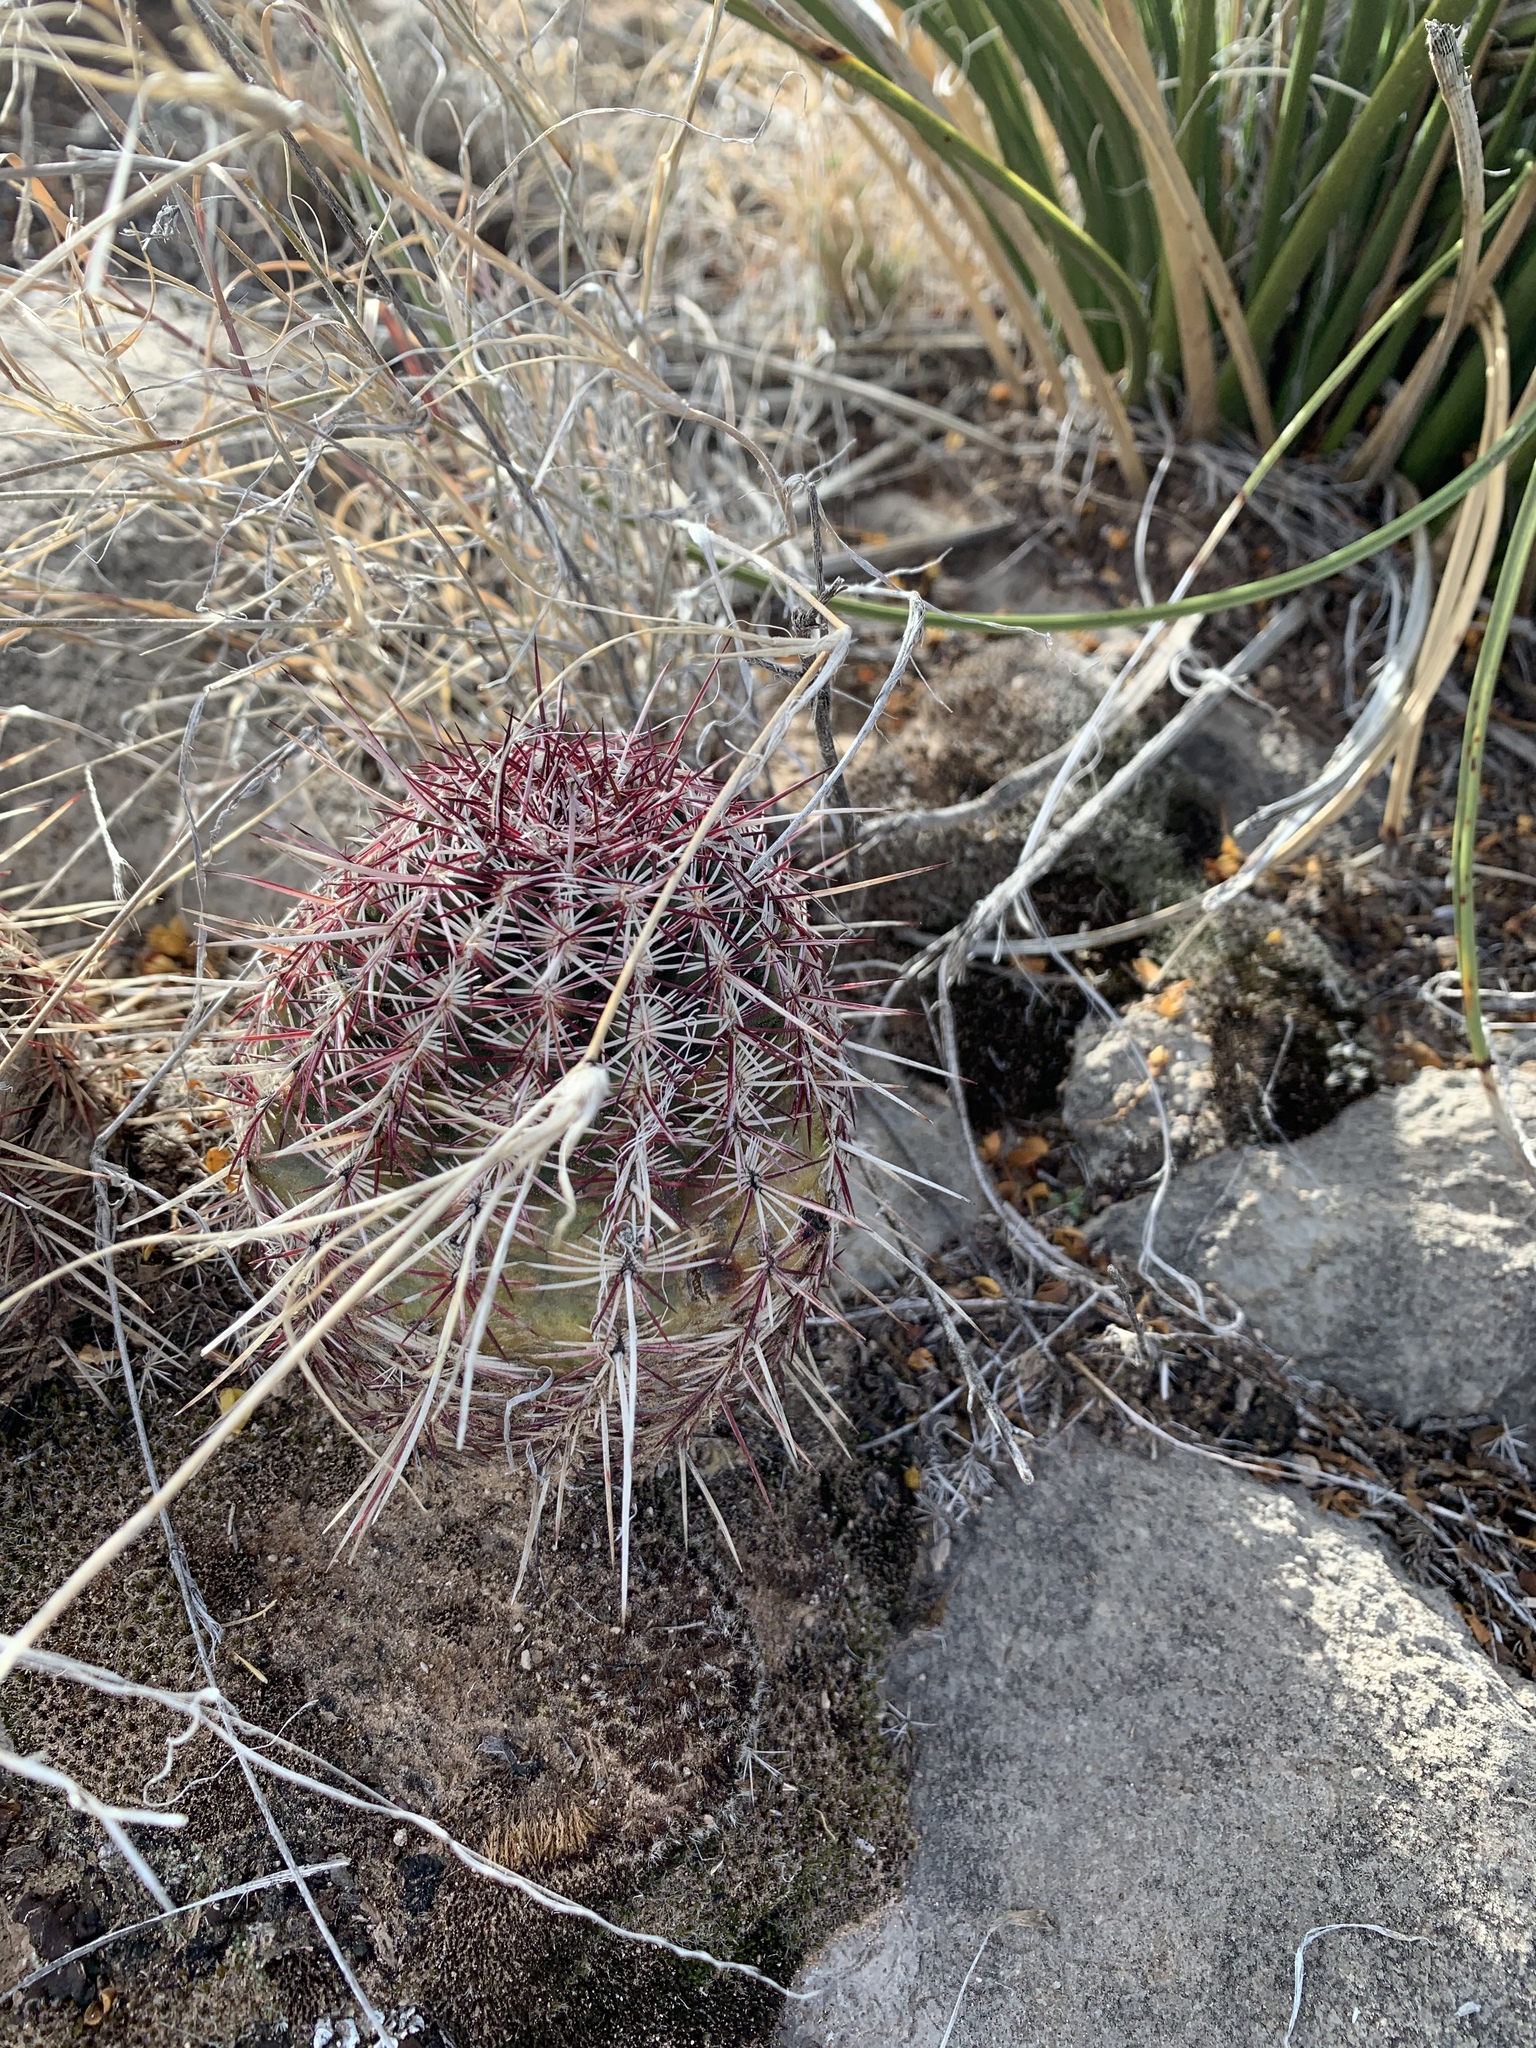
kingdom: Plantae
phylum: Tracheophyta
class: Magnoliopsida
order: Caryophyllales
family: Cactaceae
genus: Echinocereus
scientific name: Echinocereus viridiflorus
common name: Nylon hedgehog cactus
